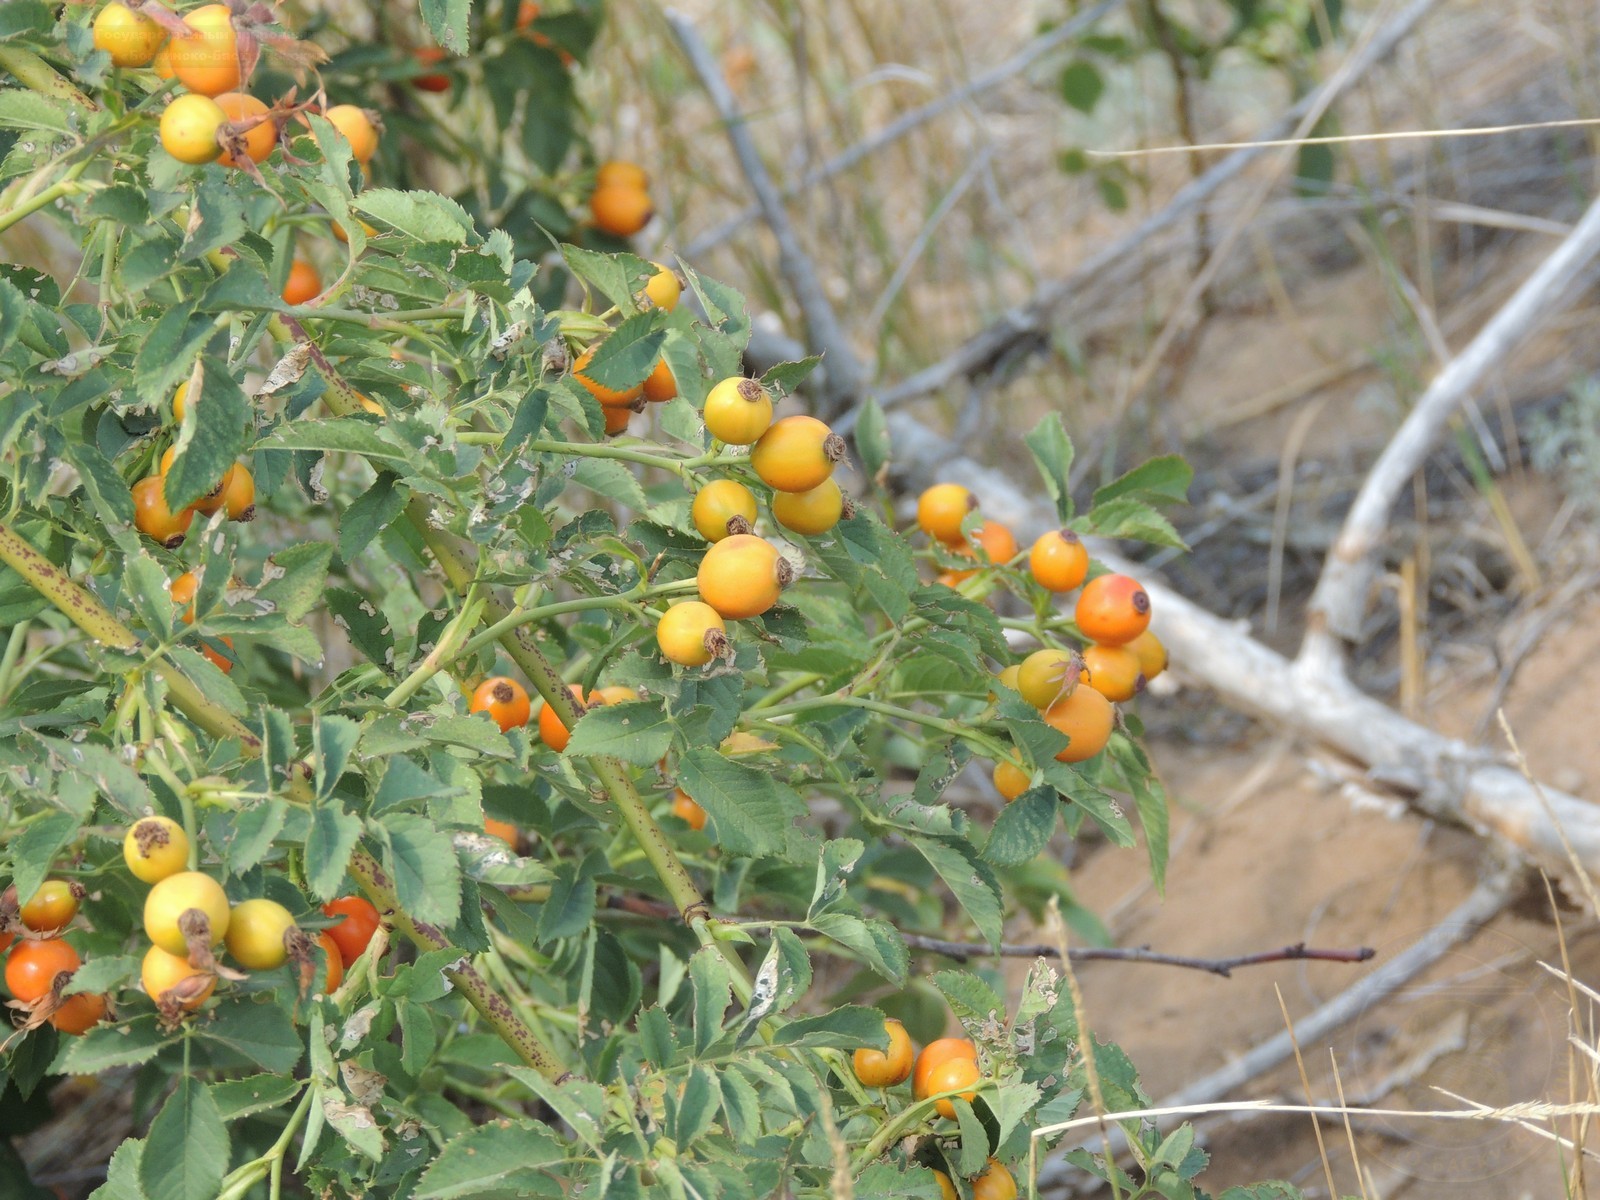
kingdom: Plantae
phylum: Tracheophyta
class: Magnoliopsida
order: Rosales
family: Rosaceae
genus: Rosa
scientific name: Rosa canina
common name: Dog rose
